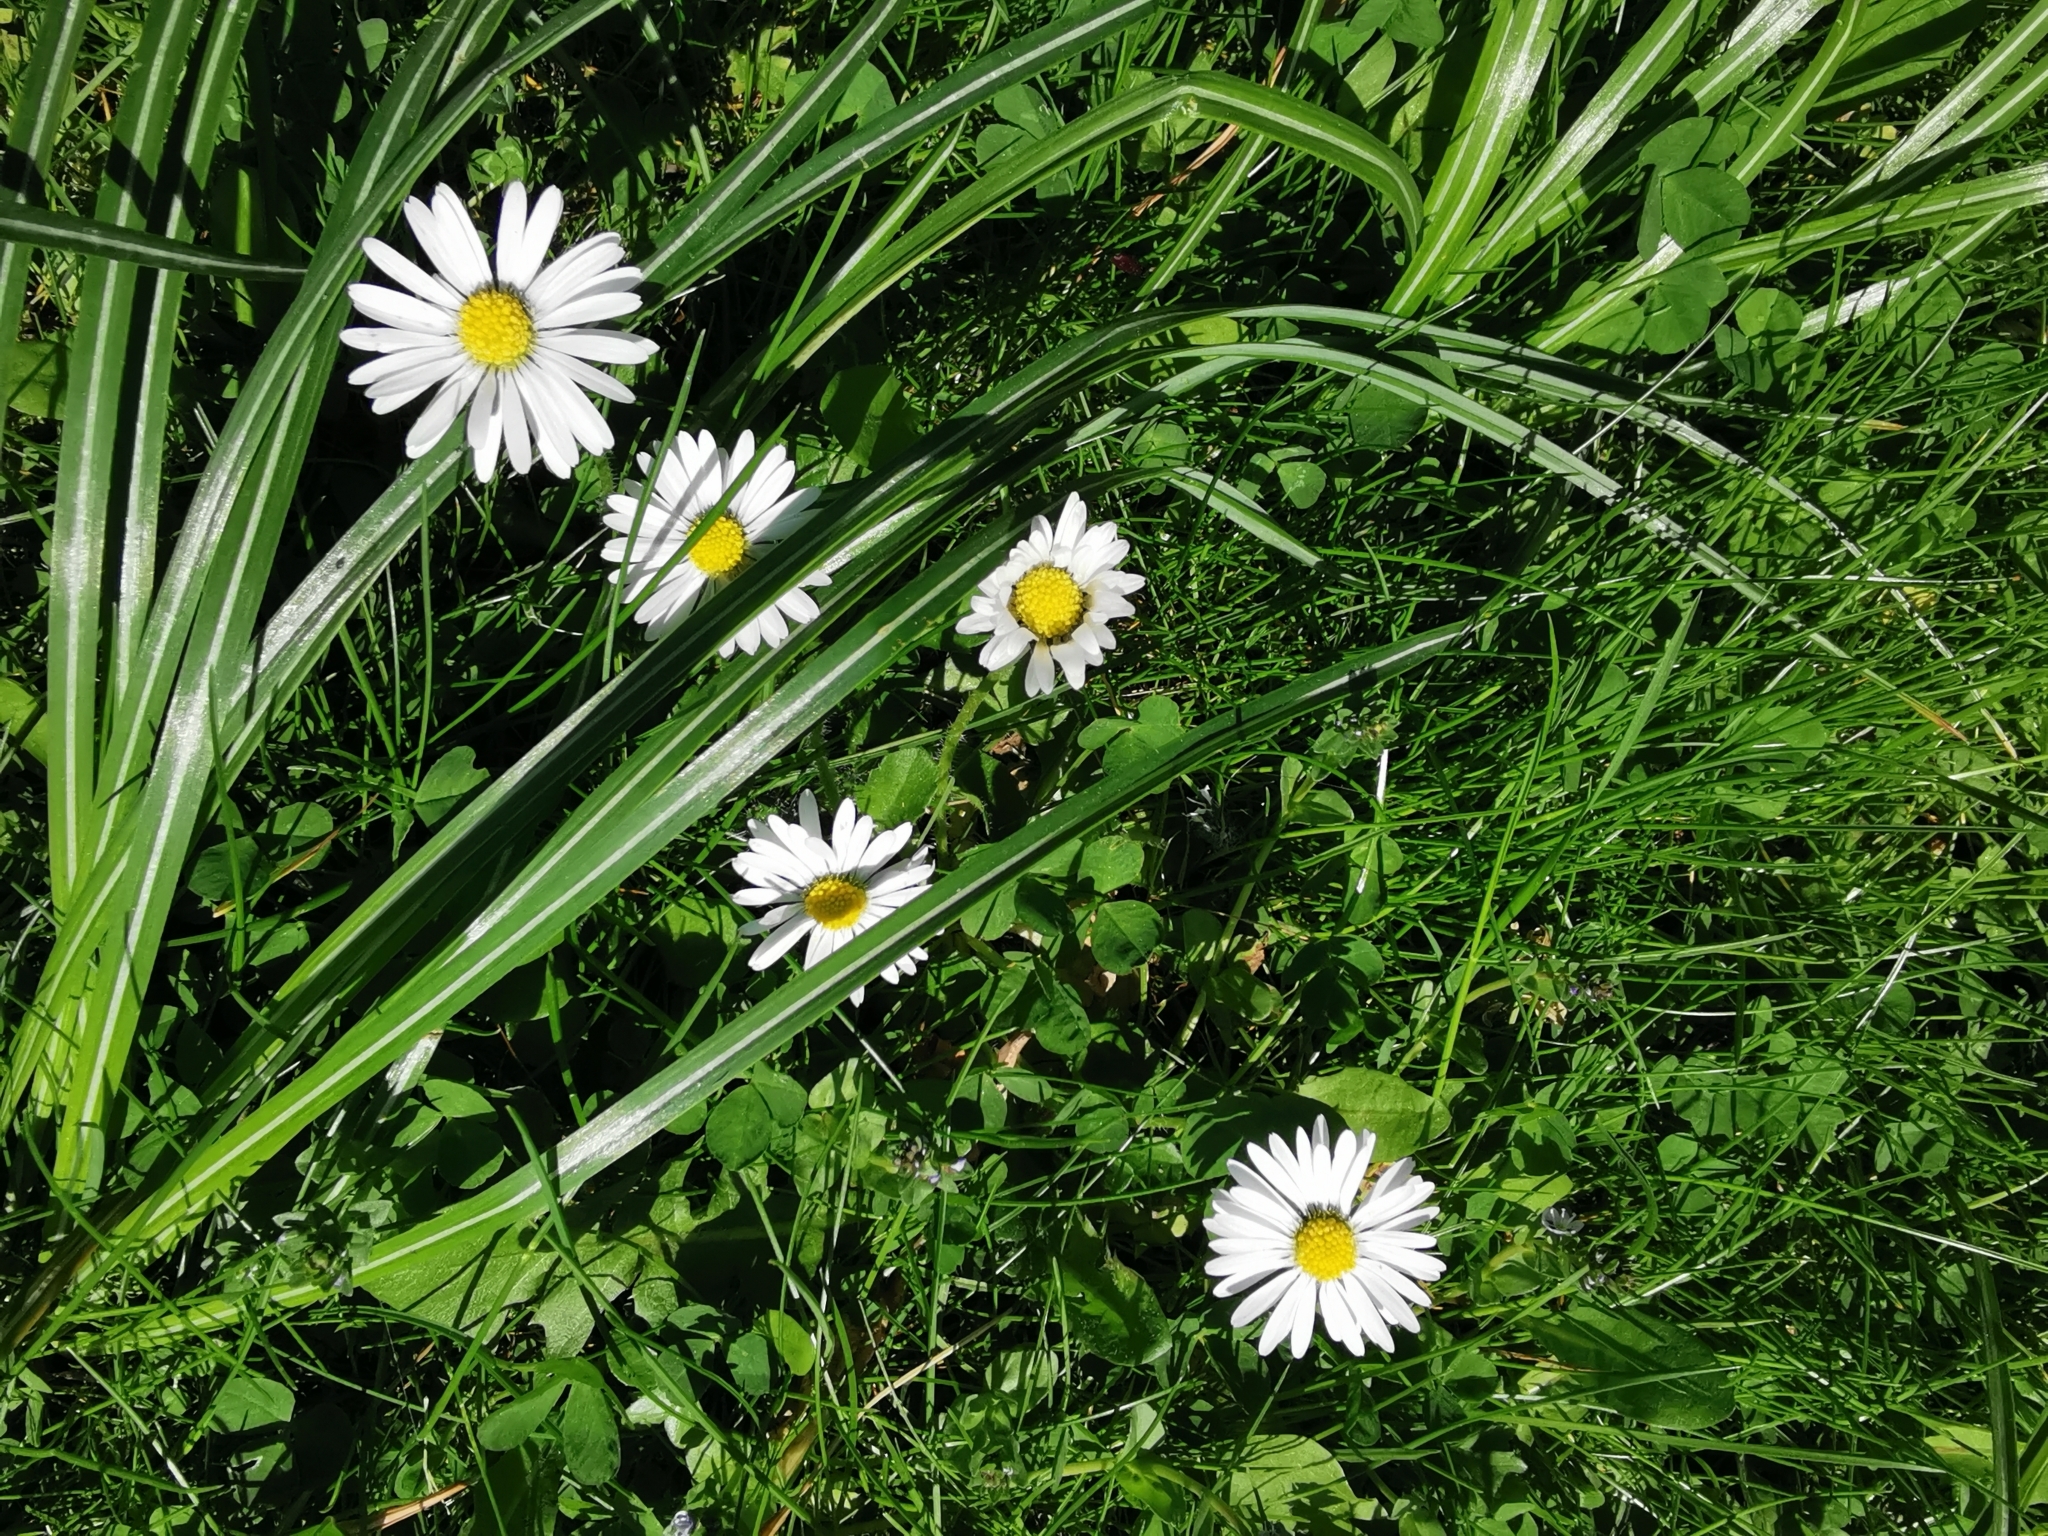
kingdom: Plantae
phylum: Tracheophyta
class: Magnoliopsida
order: Asterales
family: Asteraceae
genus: Bellis
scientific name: Bellis perennis
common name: Lawndaisy
